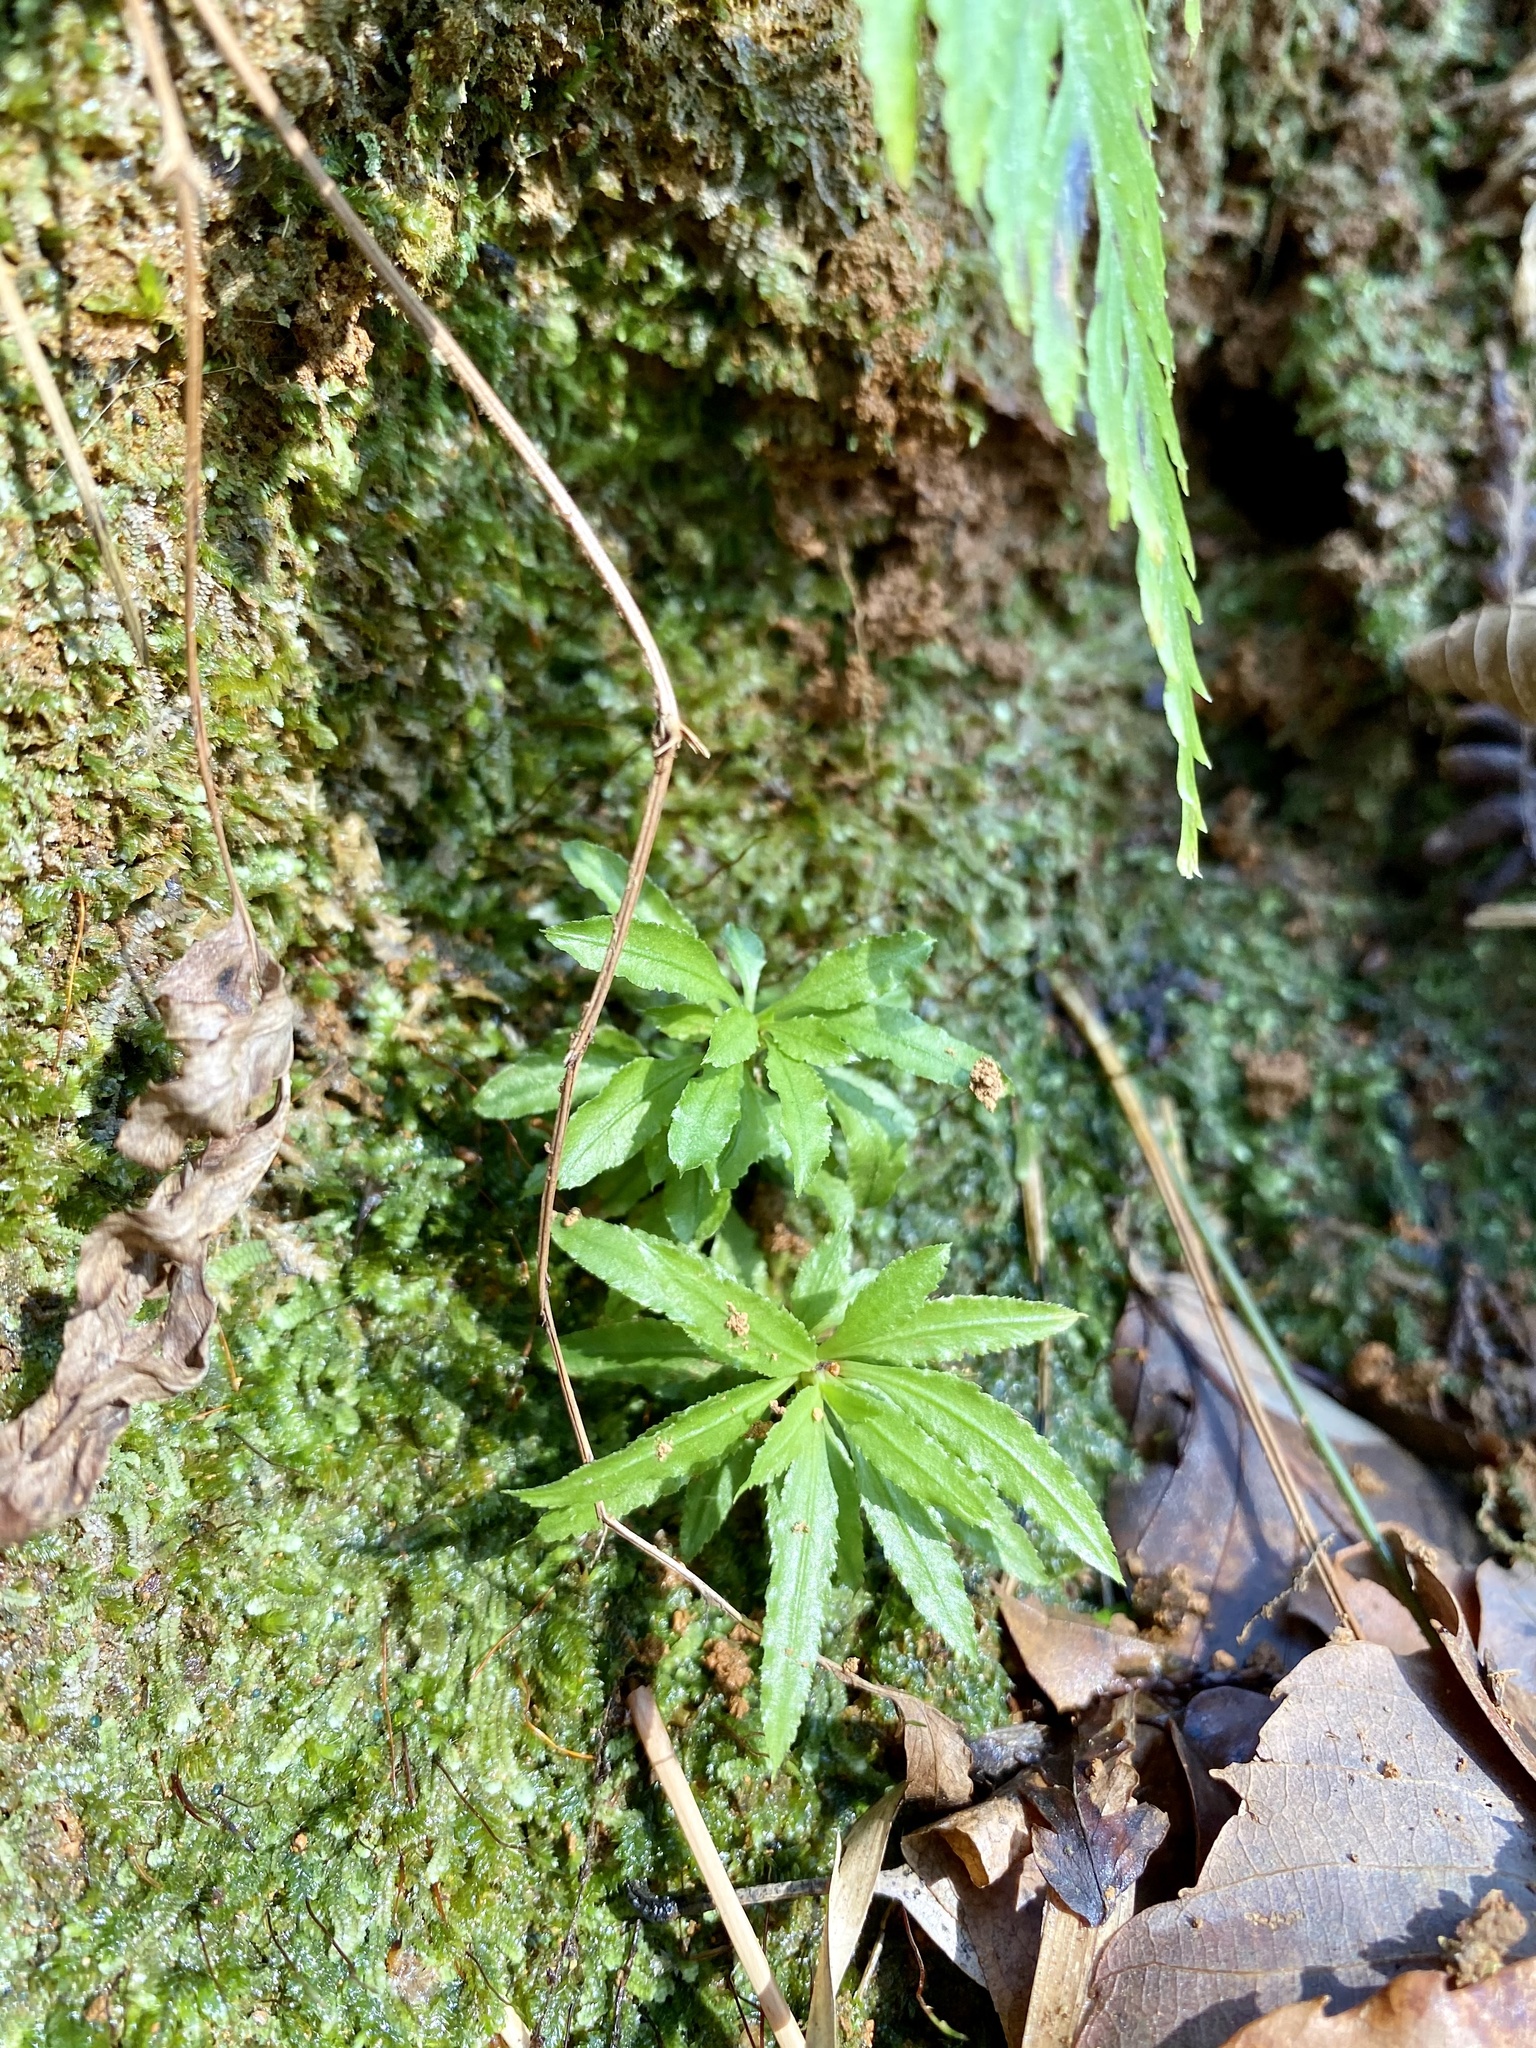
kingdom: Plantae
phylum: Tracheophyta
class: Lycopodiopsida
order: Lycopodiales
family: Lycopodiaceae
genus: Huperzia
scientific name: Huperzia serrata
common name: Toothed club-moss
